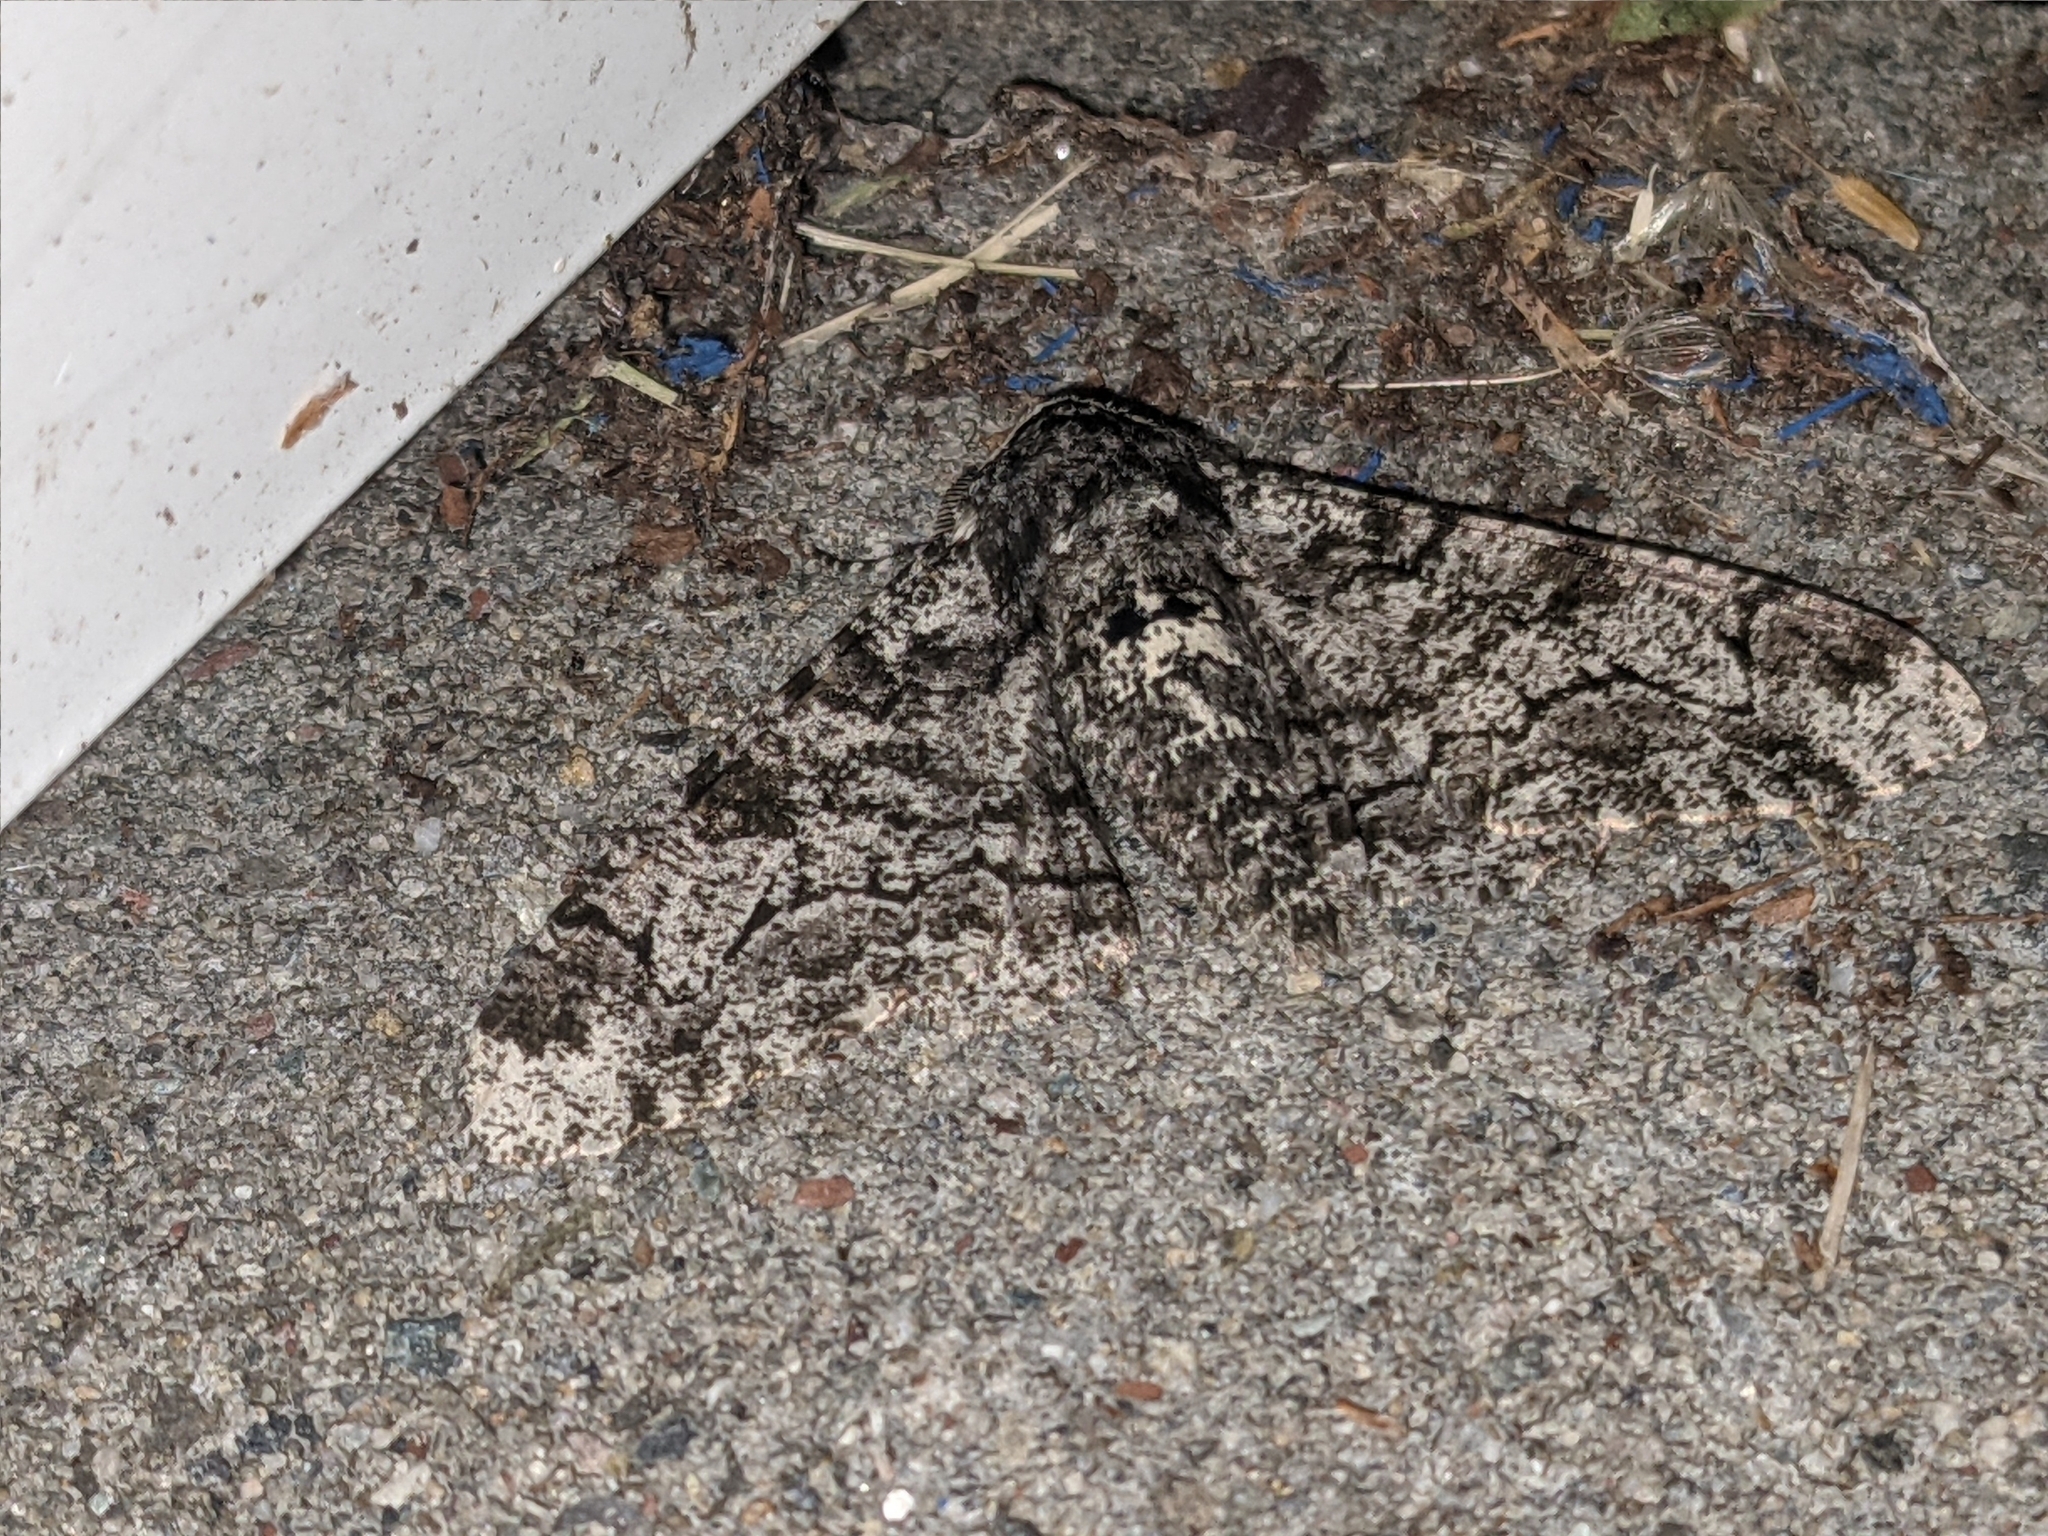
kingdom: Animalia
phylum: Arthropoda
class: Insecta
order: Lepidoptera
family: Geometridae
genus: Biston
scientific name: Biston betularia
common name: Peppered moth
